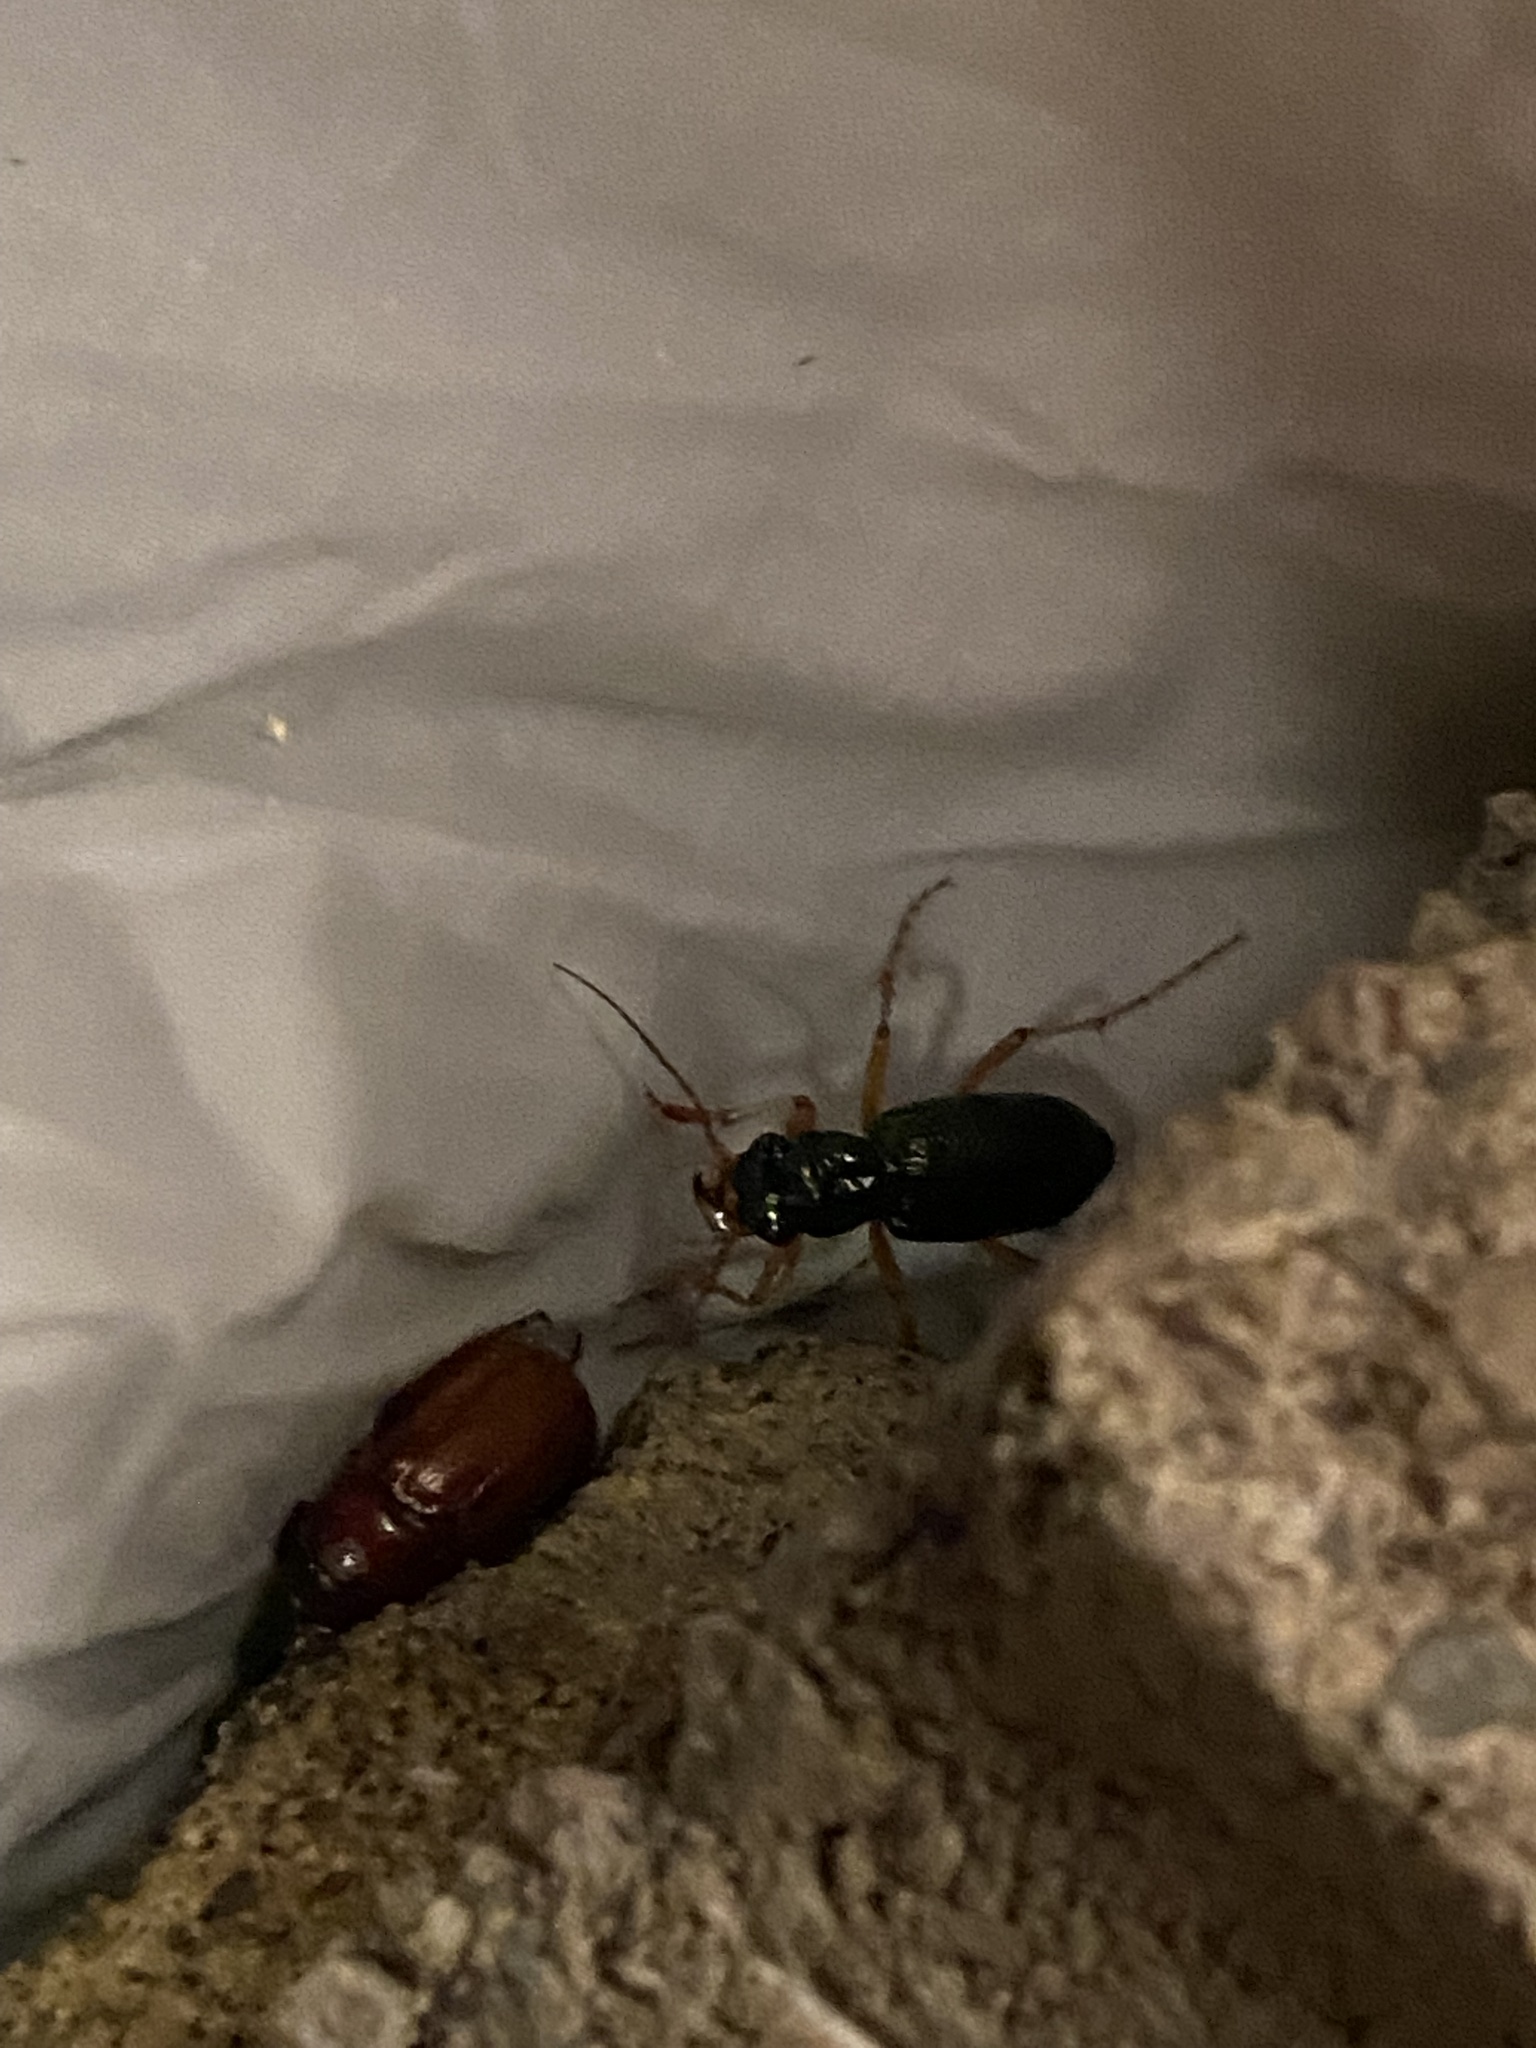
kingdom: Animalia
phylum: Arthropoda
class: Insecta
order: Coleoptera
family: Carabidae
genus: Tetracha
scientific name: Tetracha virginica
